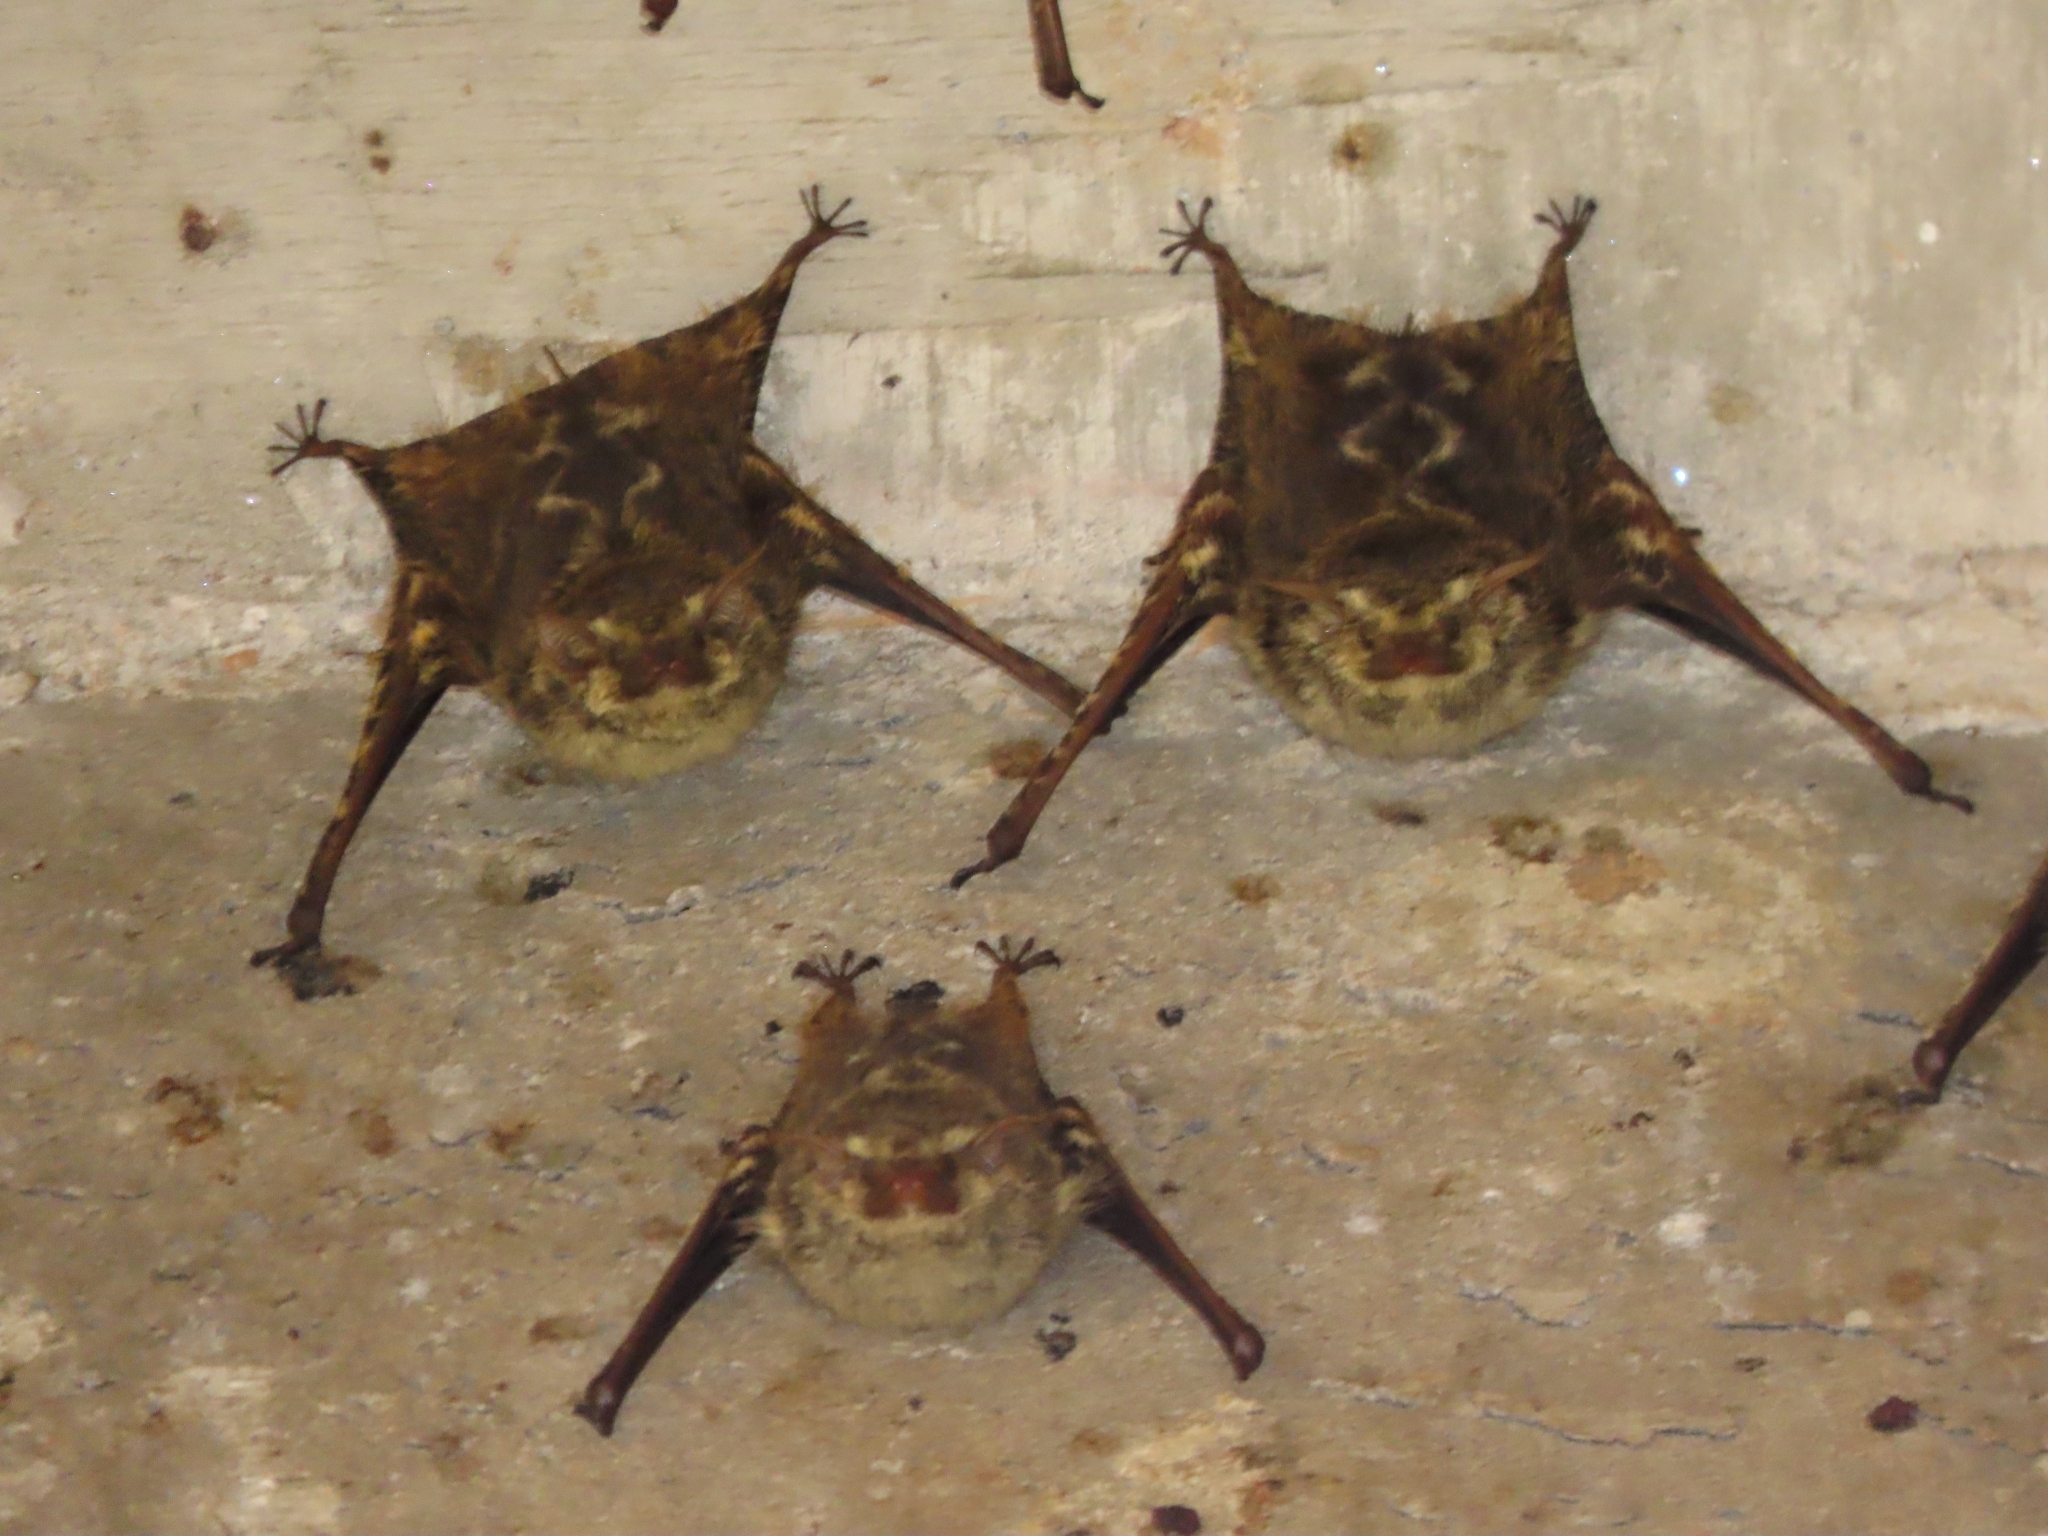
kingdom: Animalia
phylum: Chordata
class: Mammalia
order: Chiroptera
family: Emballonuridae
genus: Rhynchonycteris
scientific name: Rhynchonycteris naso
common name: Proboscis bat
